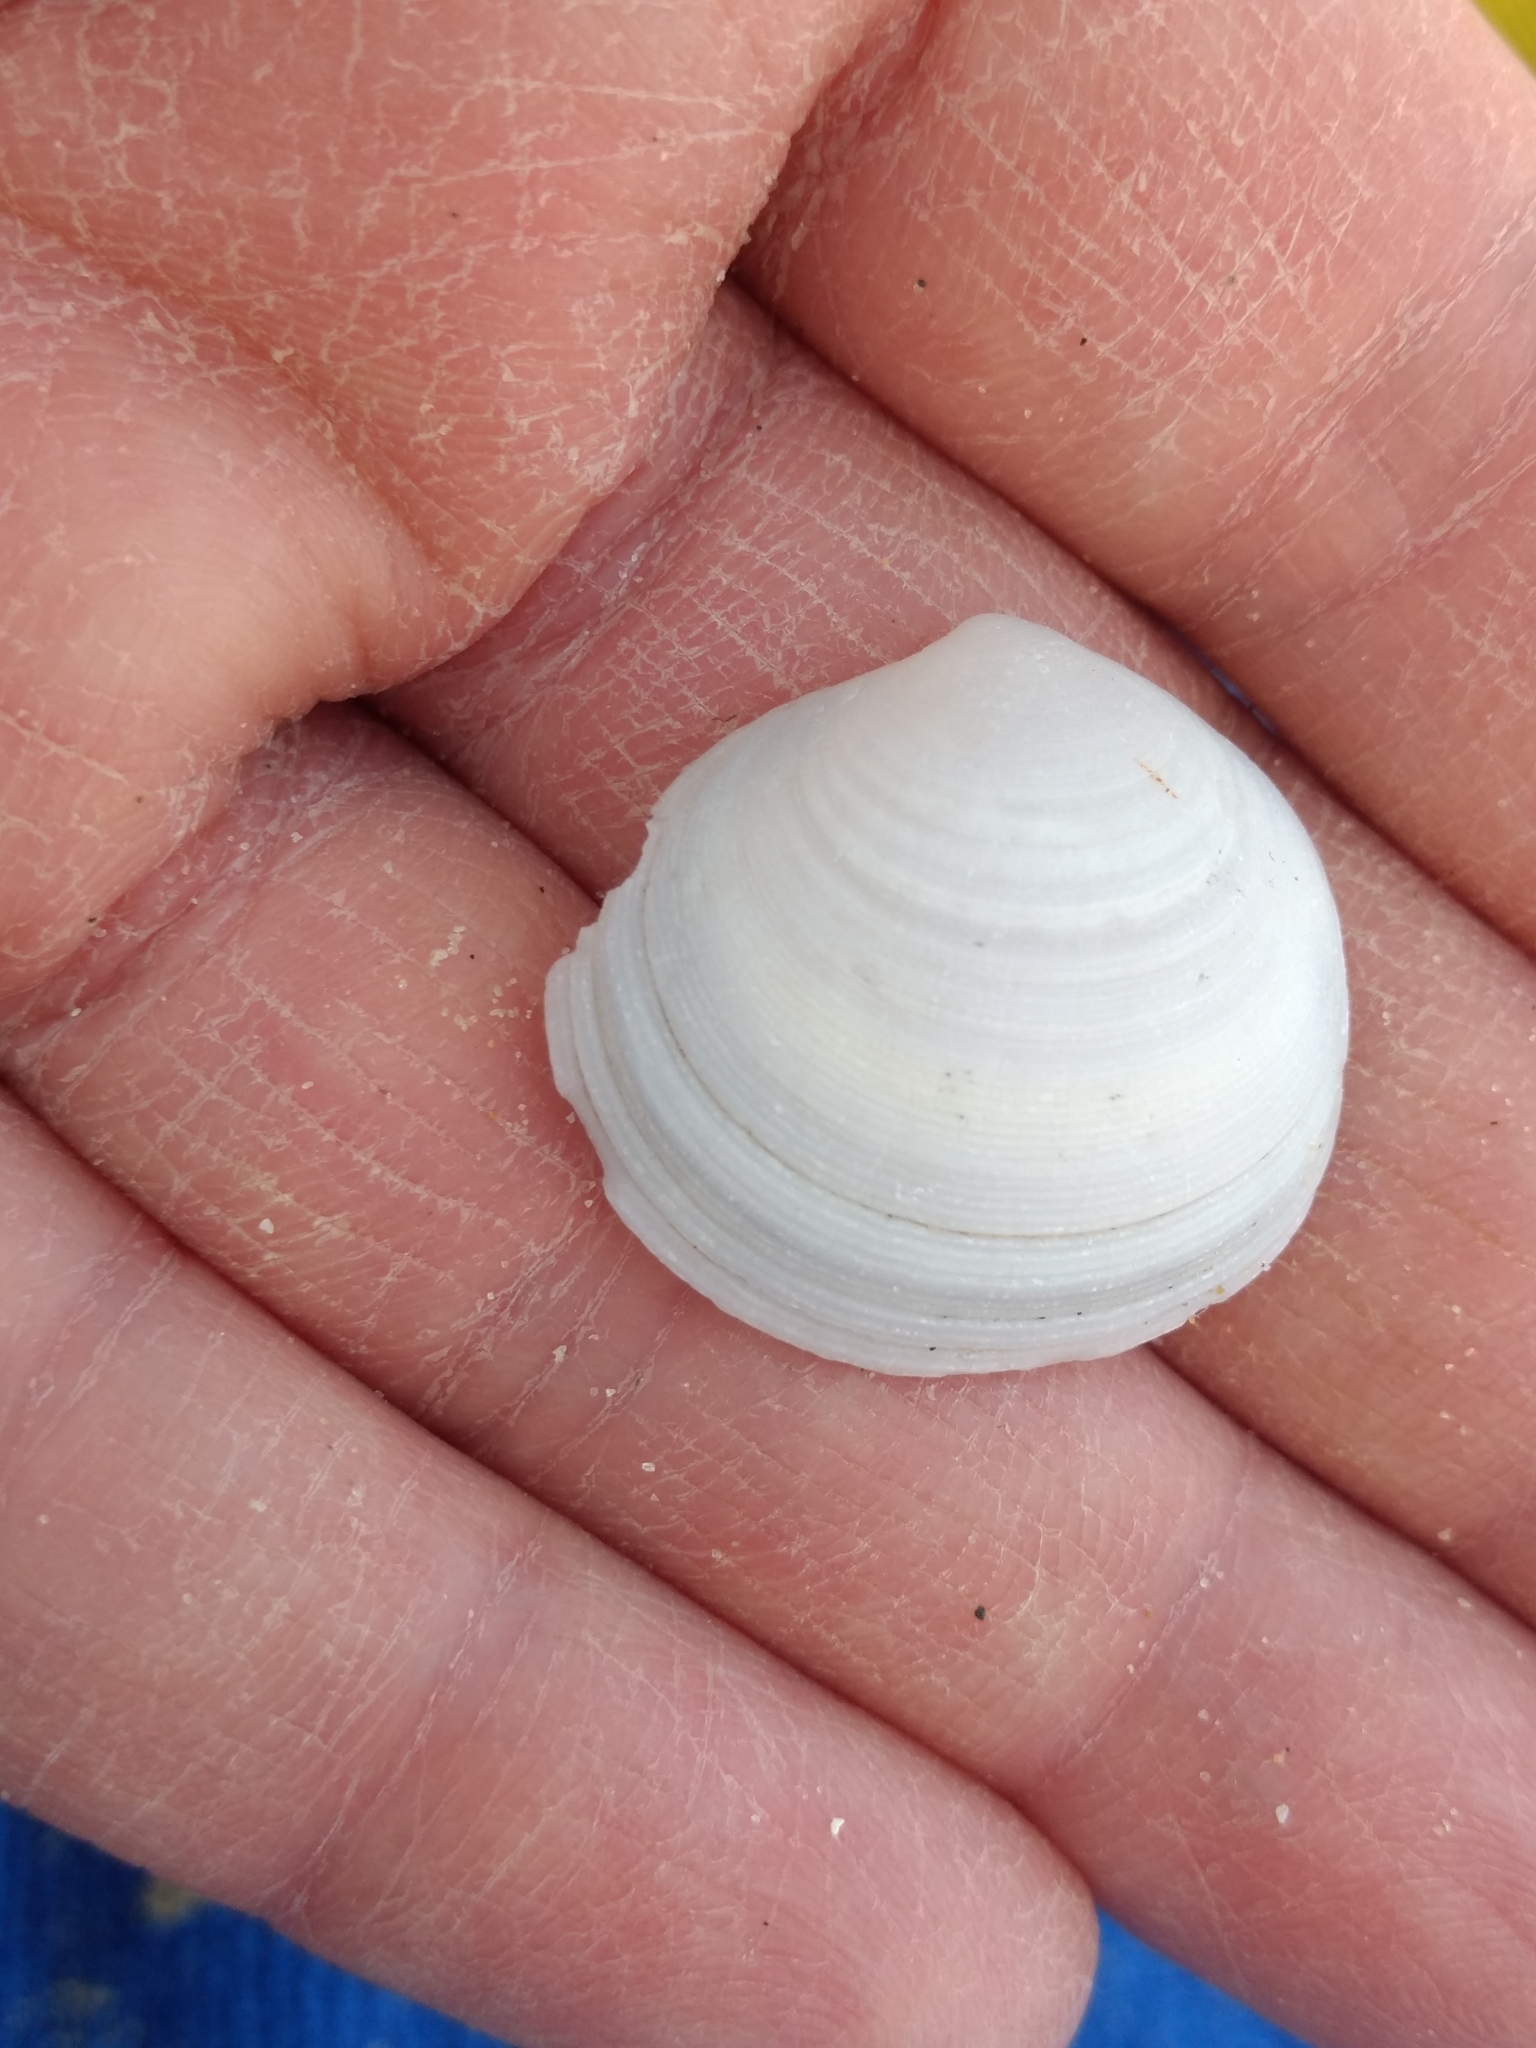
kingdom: Animalia
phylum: Mollusca
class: Bivalvia
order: Lucinida
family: Lucinidae
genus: Epilucina
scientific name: Epilucina californica
